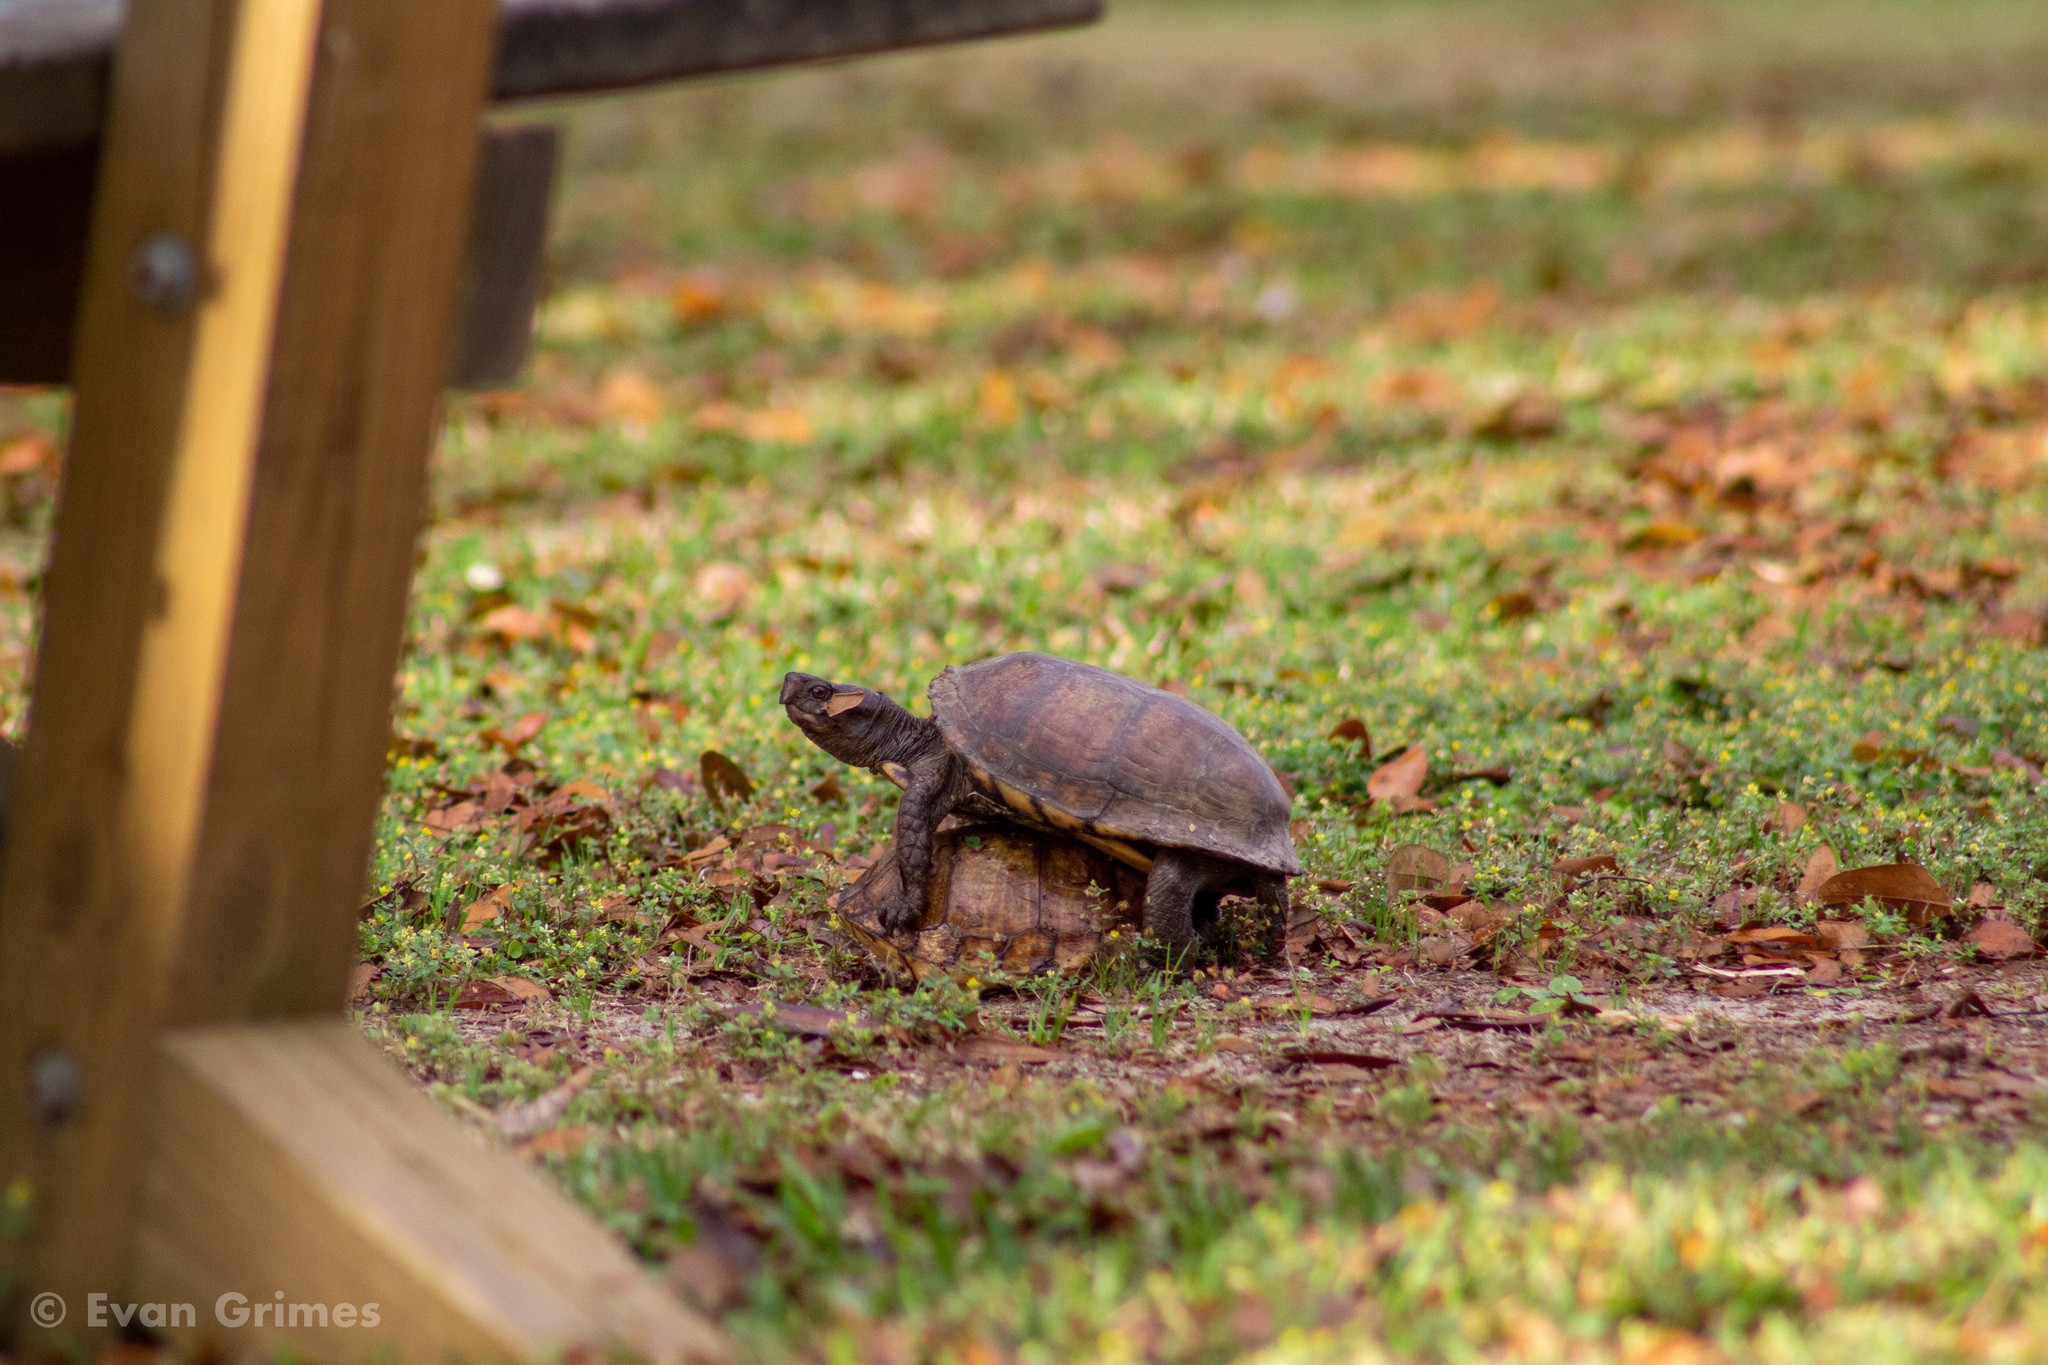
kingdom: Animalia
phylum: Chordata
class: Testudines
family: Emydidae
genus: Terrapene
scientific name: Terrapene carolina
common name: Common box turtle
